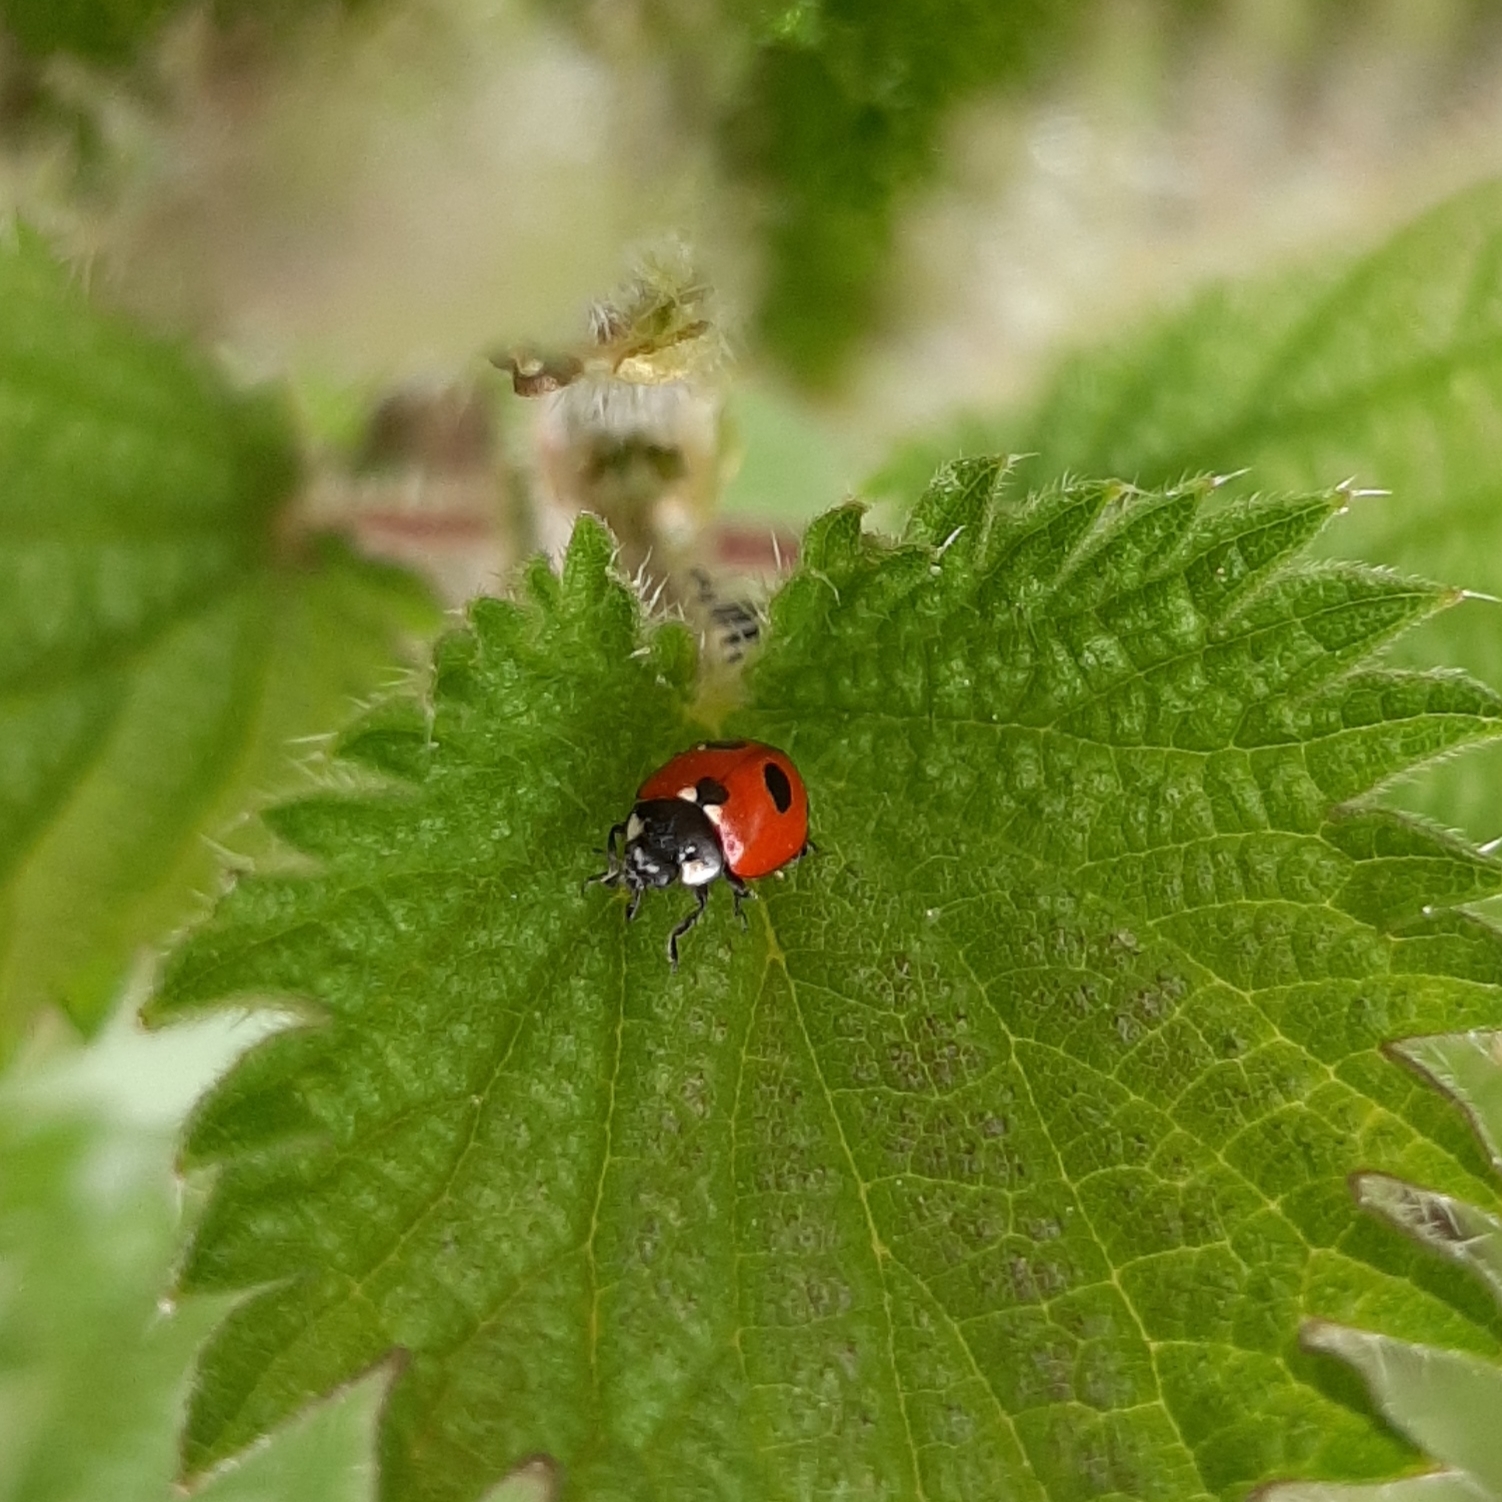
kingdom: Animalia
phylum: Arthropoda
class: Insecta
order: Coleoptera
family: Coccinellidae
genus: Coccinella
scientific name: Coccinella quinquepunctata
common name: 5-spot ladybird
